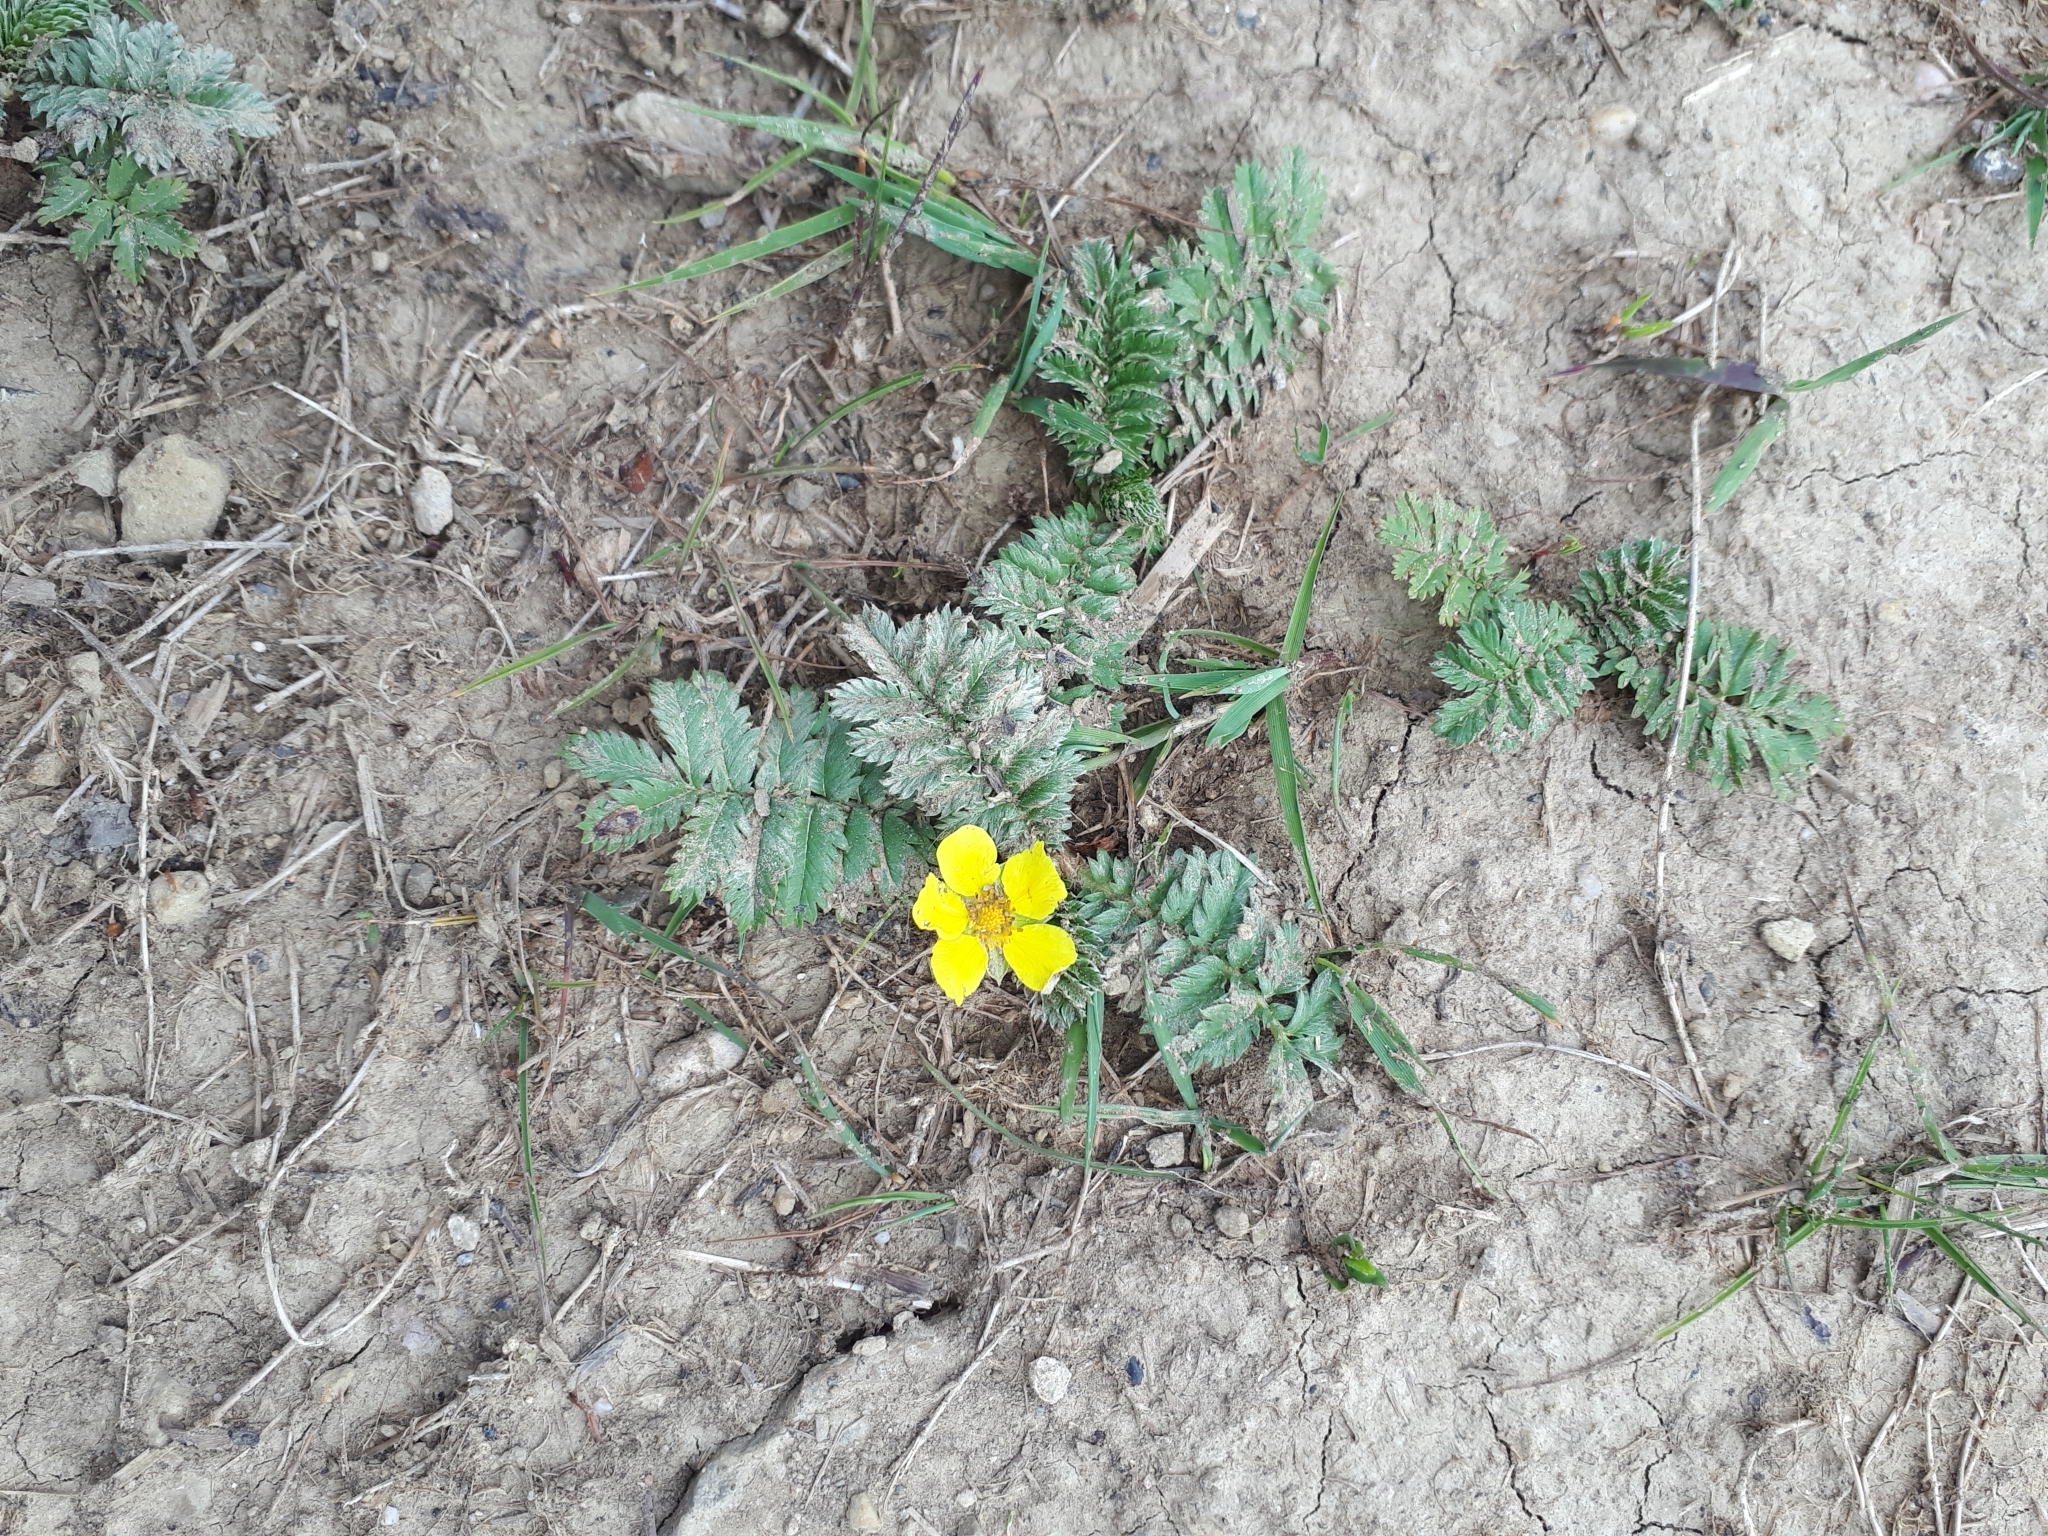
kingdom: Plantae
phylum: Tracheophyta
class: Magnoliopsida
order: Rosales
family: Rosaceae
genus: Argentina
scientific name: Argentina anserina
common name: Common silverweed
